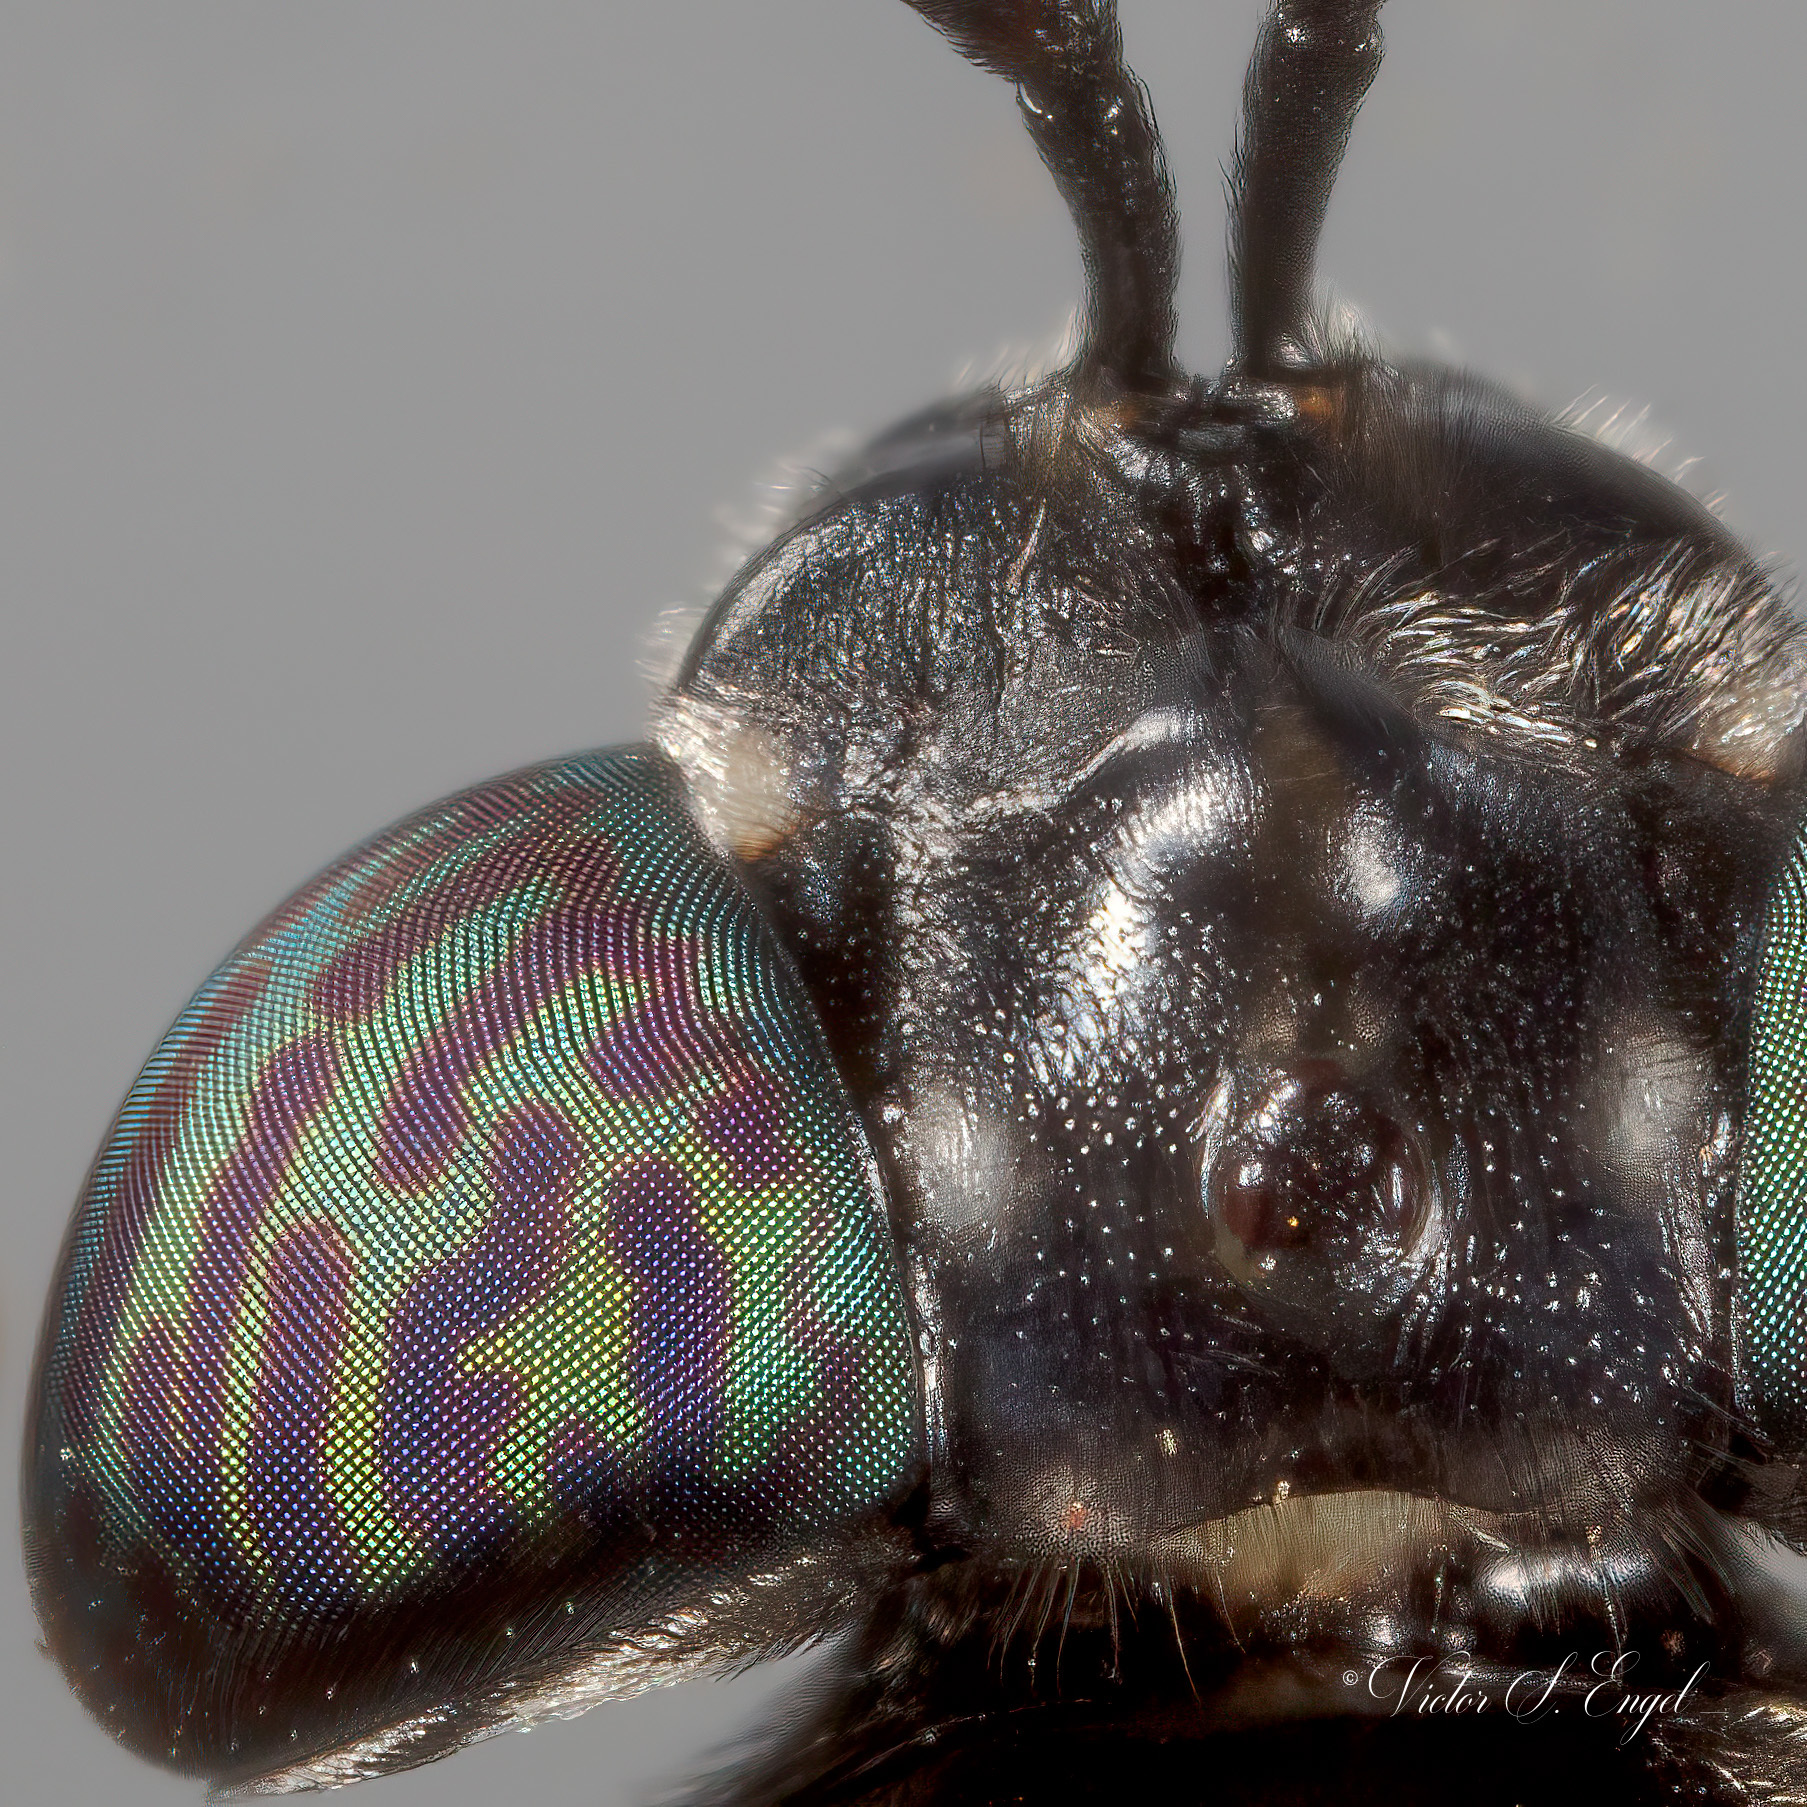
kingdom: Animalia
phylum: Arthropoda
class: Insecta
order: Diptera
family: Stratiomyidae
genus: Hermetia
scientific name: Hermetia illucens
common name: Black soldier fly
